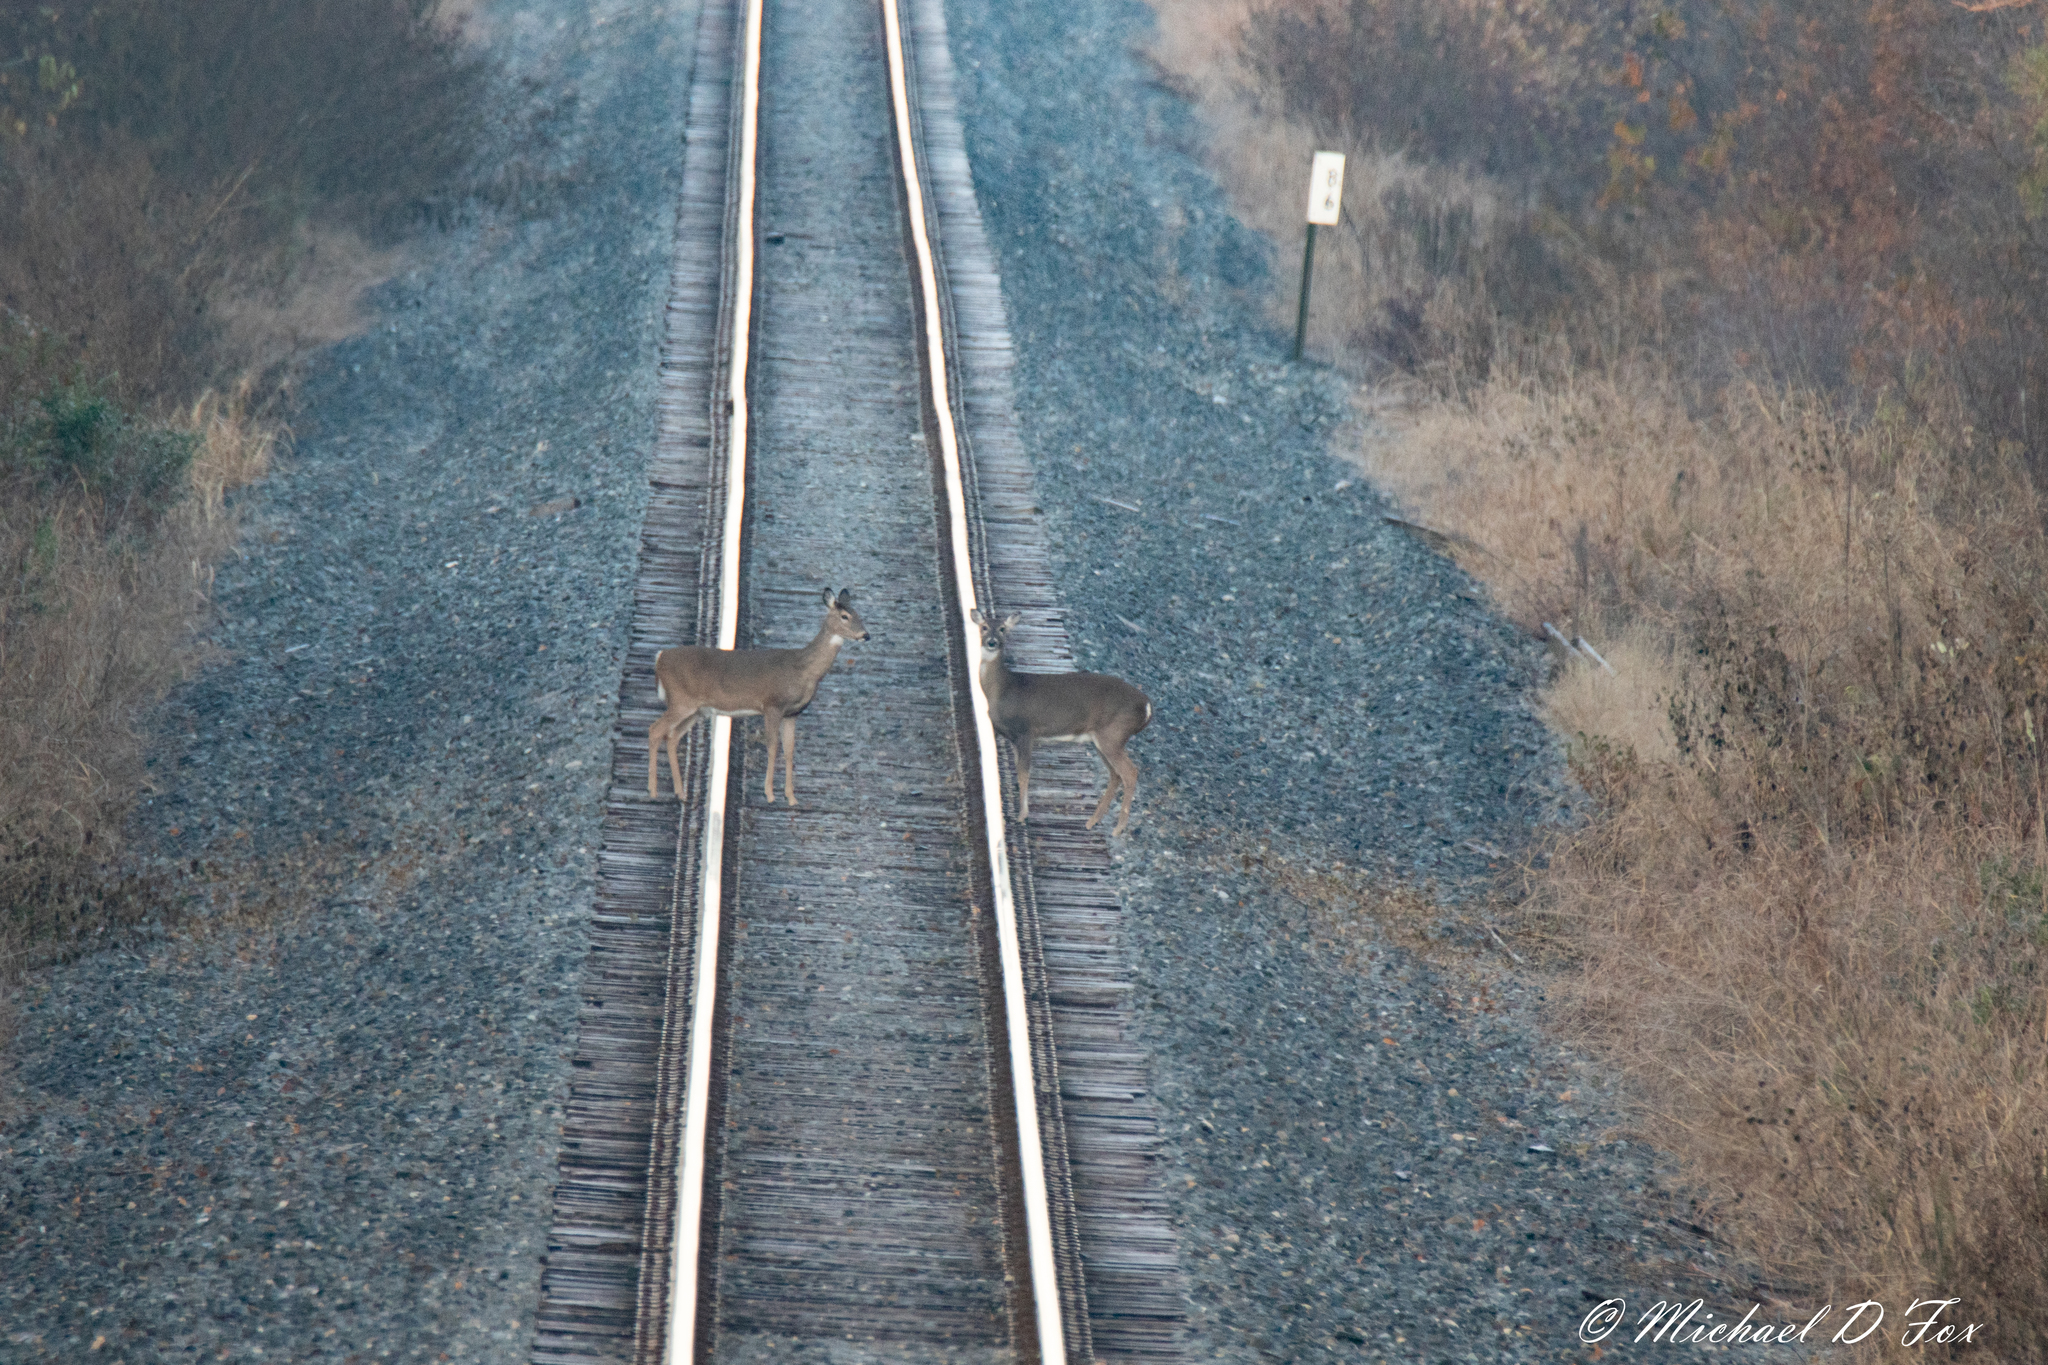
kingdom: Animalia
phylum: Chordata
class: Mammalia
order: Artiodactyla
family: Cervidae
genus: Odocoileus
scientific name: Odocoileus virginianus
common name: White-tailed deer
